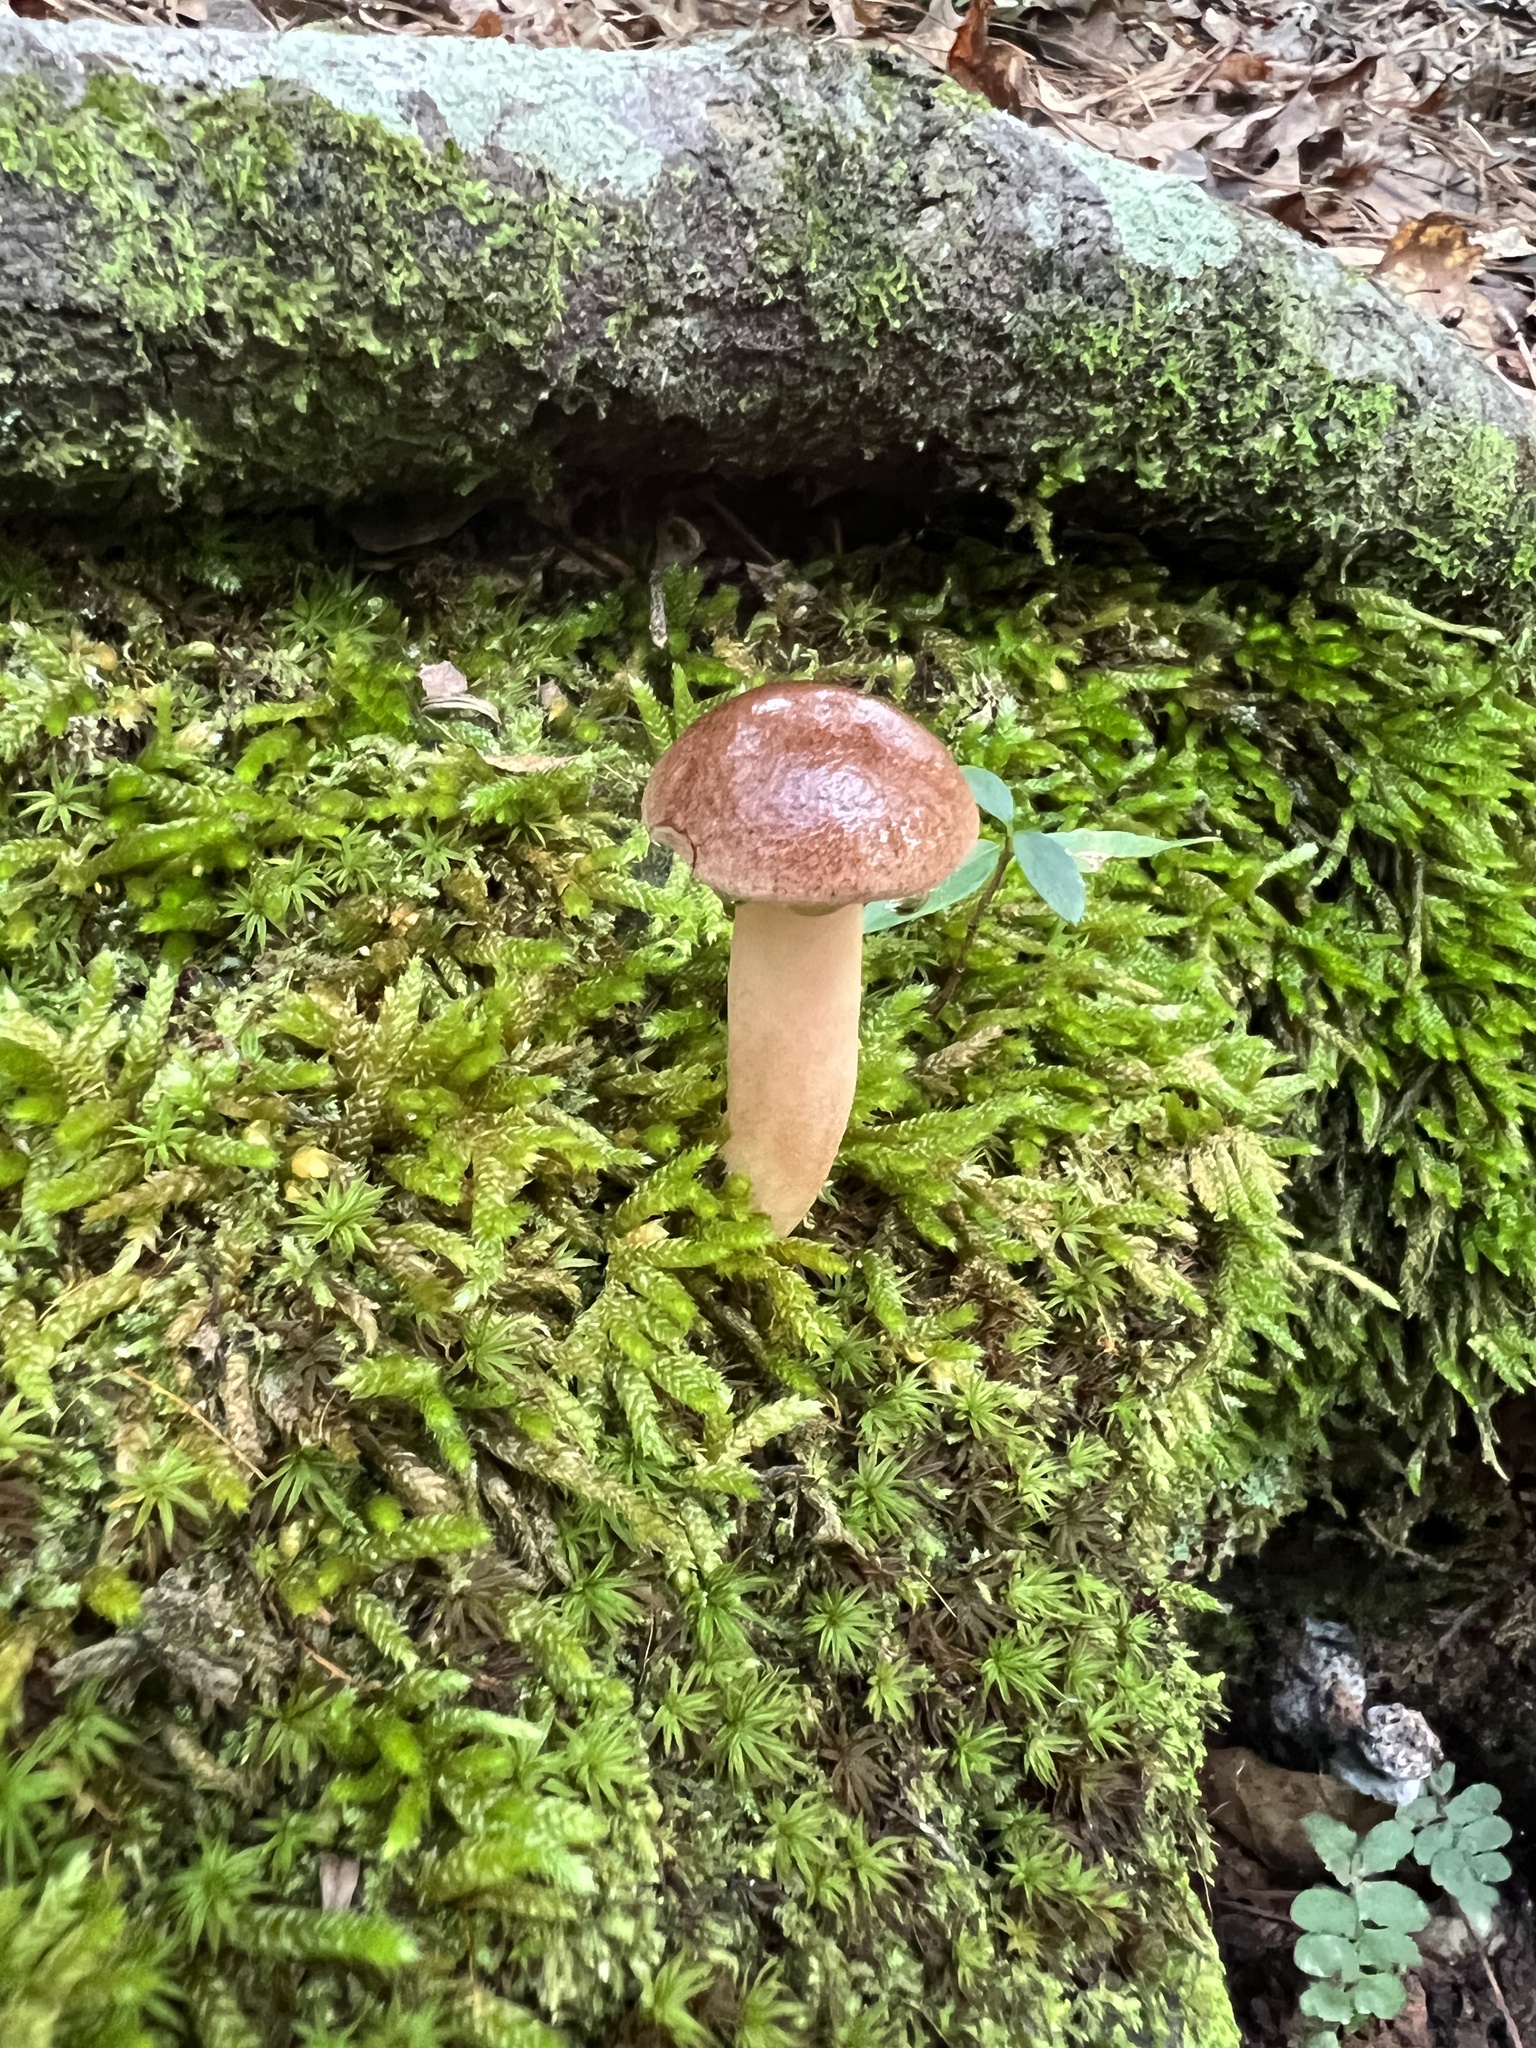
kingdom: Fungi
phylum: Basidiomycota
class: Agaricomycetes
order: Boletales
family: Boletaceae
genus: Aureoboletus
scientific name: Aureoboletus auriporus
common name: Sour gold-pored bolete
